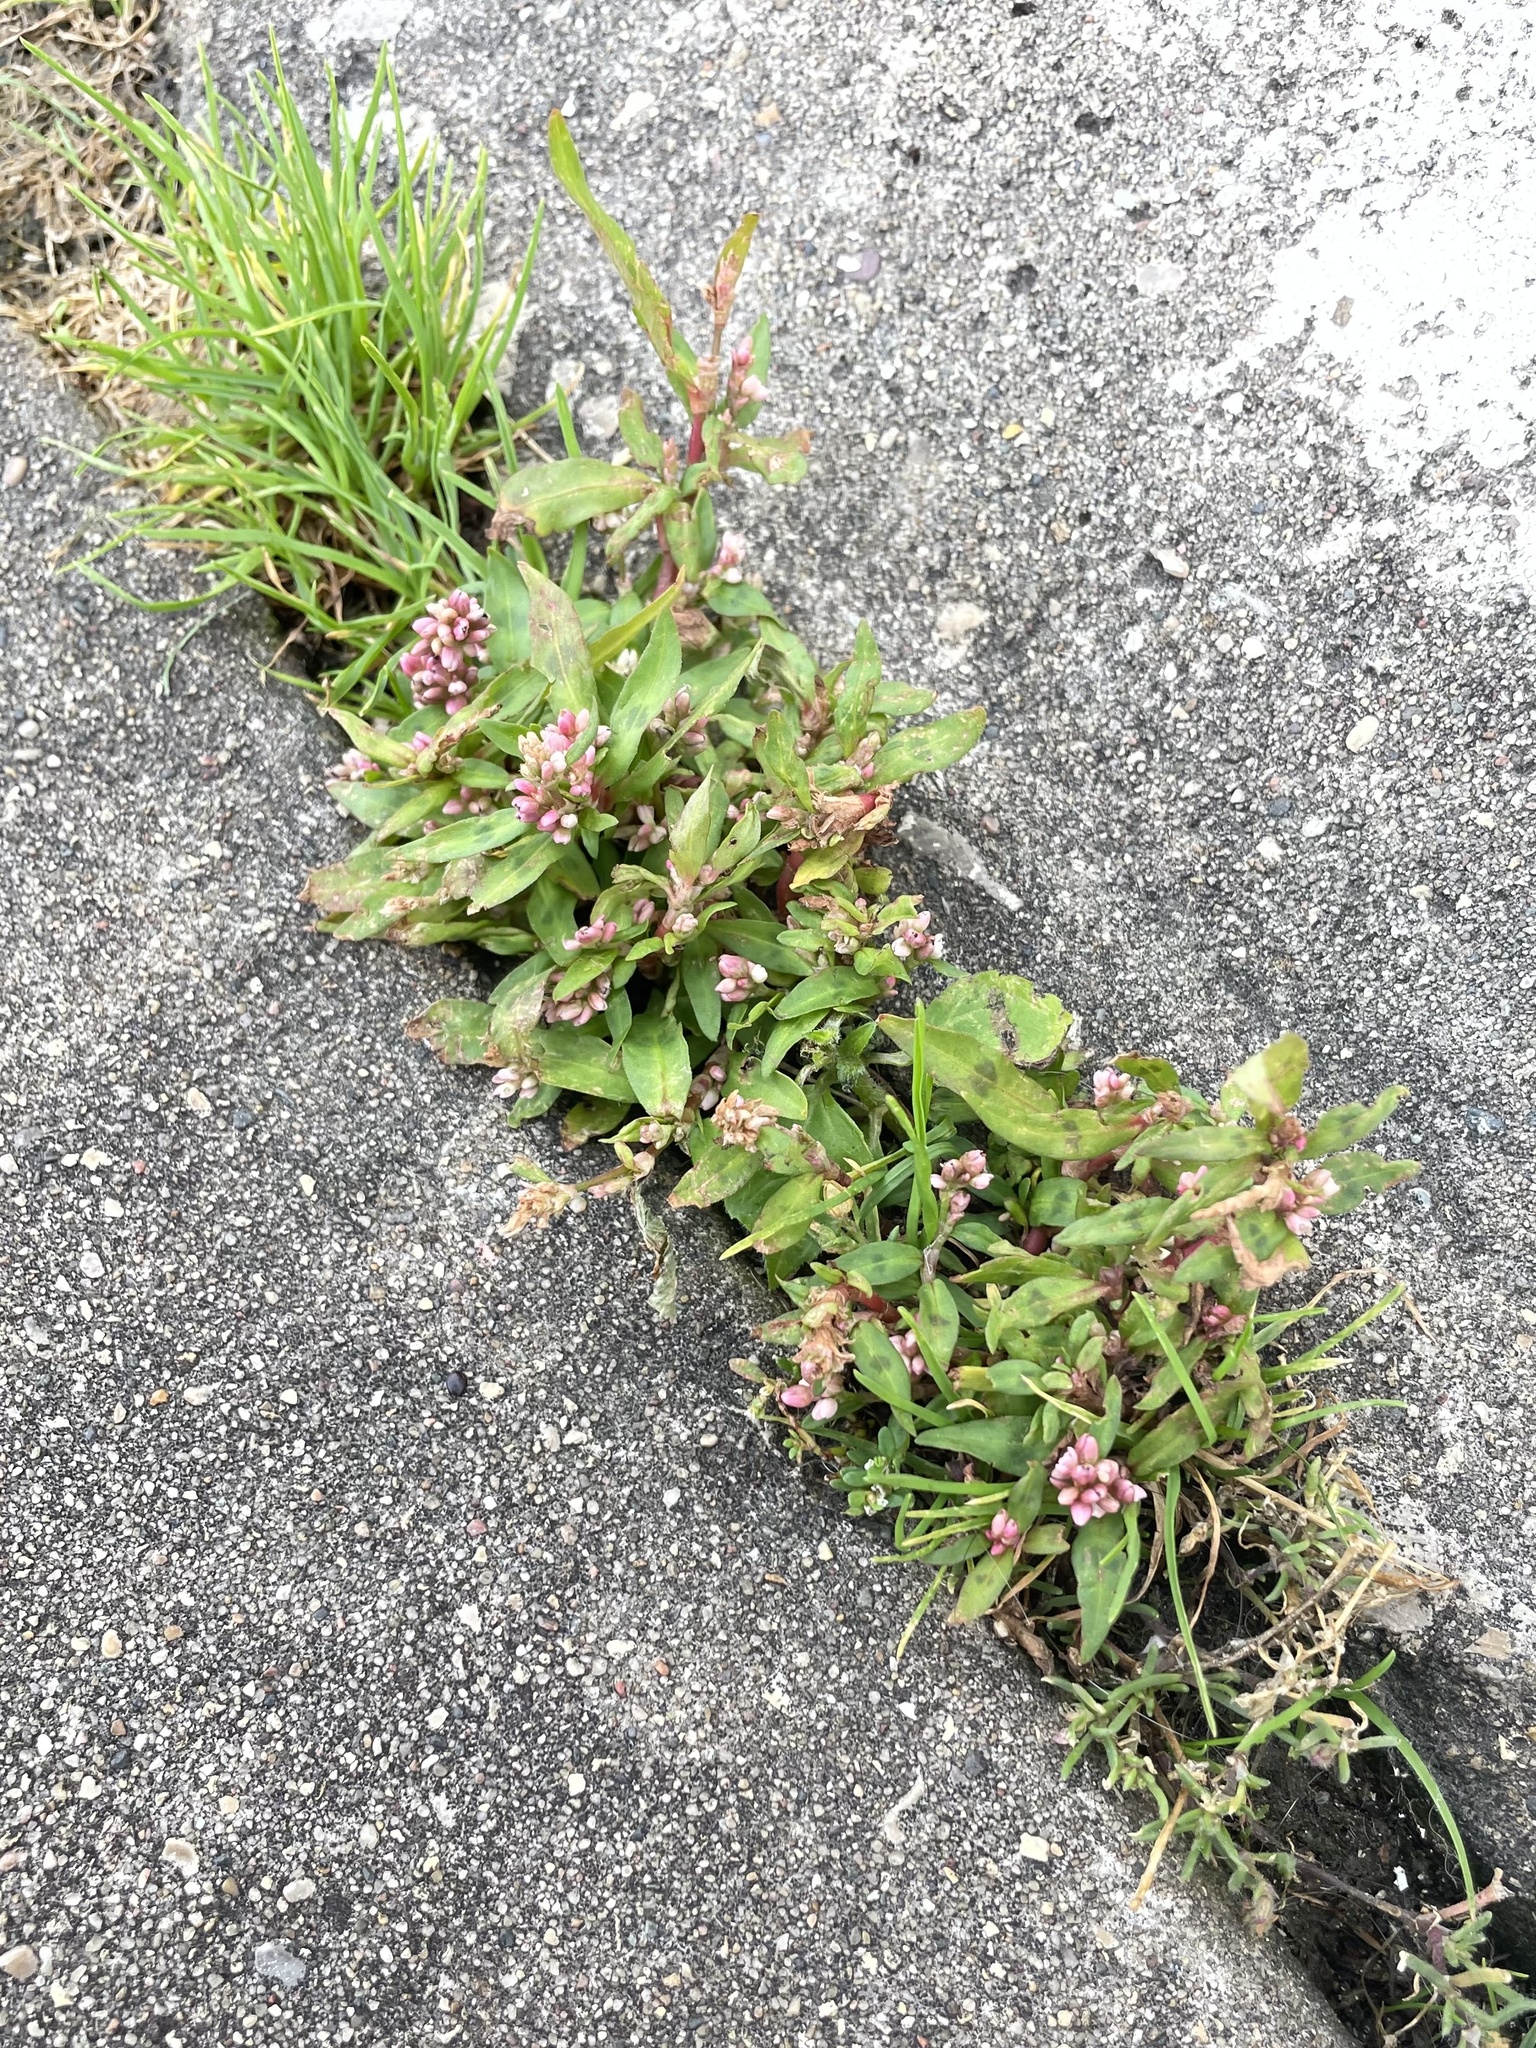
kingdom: Plantae
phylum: Tracheophyta
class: Magnoliopsida
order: Caryophyllales
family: Polygonaceae
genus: Persicaria
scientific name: Persicaria maculosa
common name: Redshank
